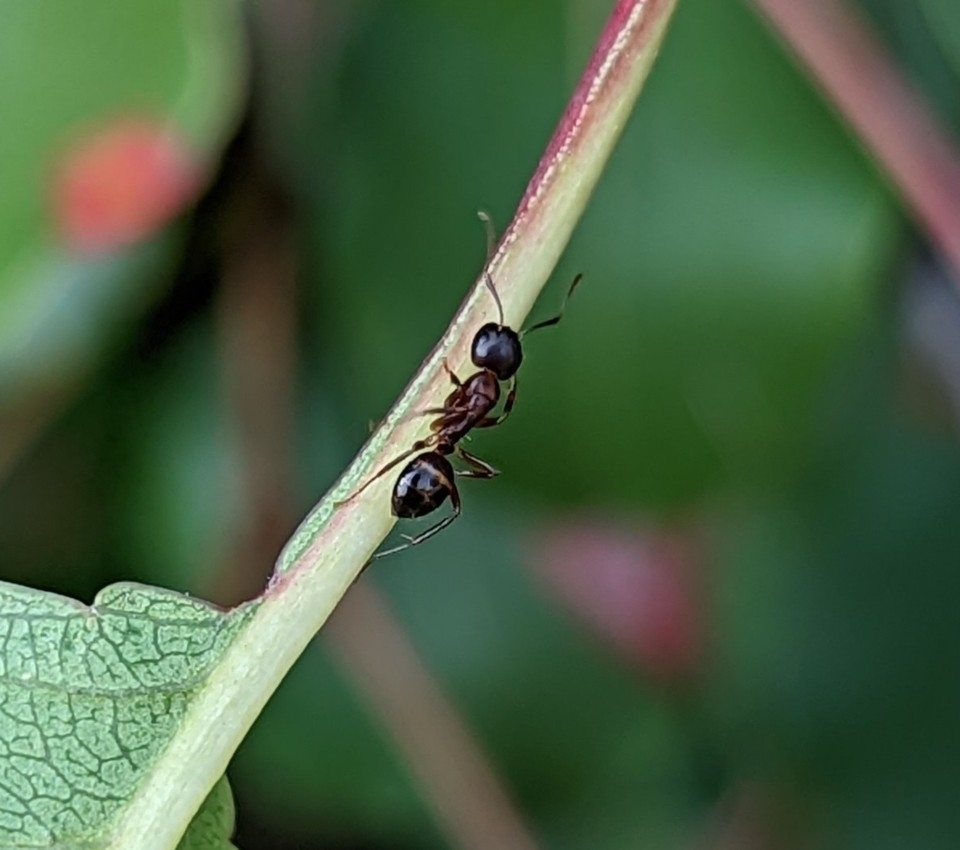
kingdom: Animalia
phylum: Arthropoda
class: Insecta
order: Hymenoptera
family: Formicidae
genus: Camponotus
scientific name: Camponotus subbarbatus
